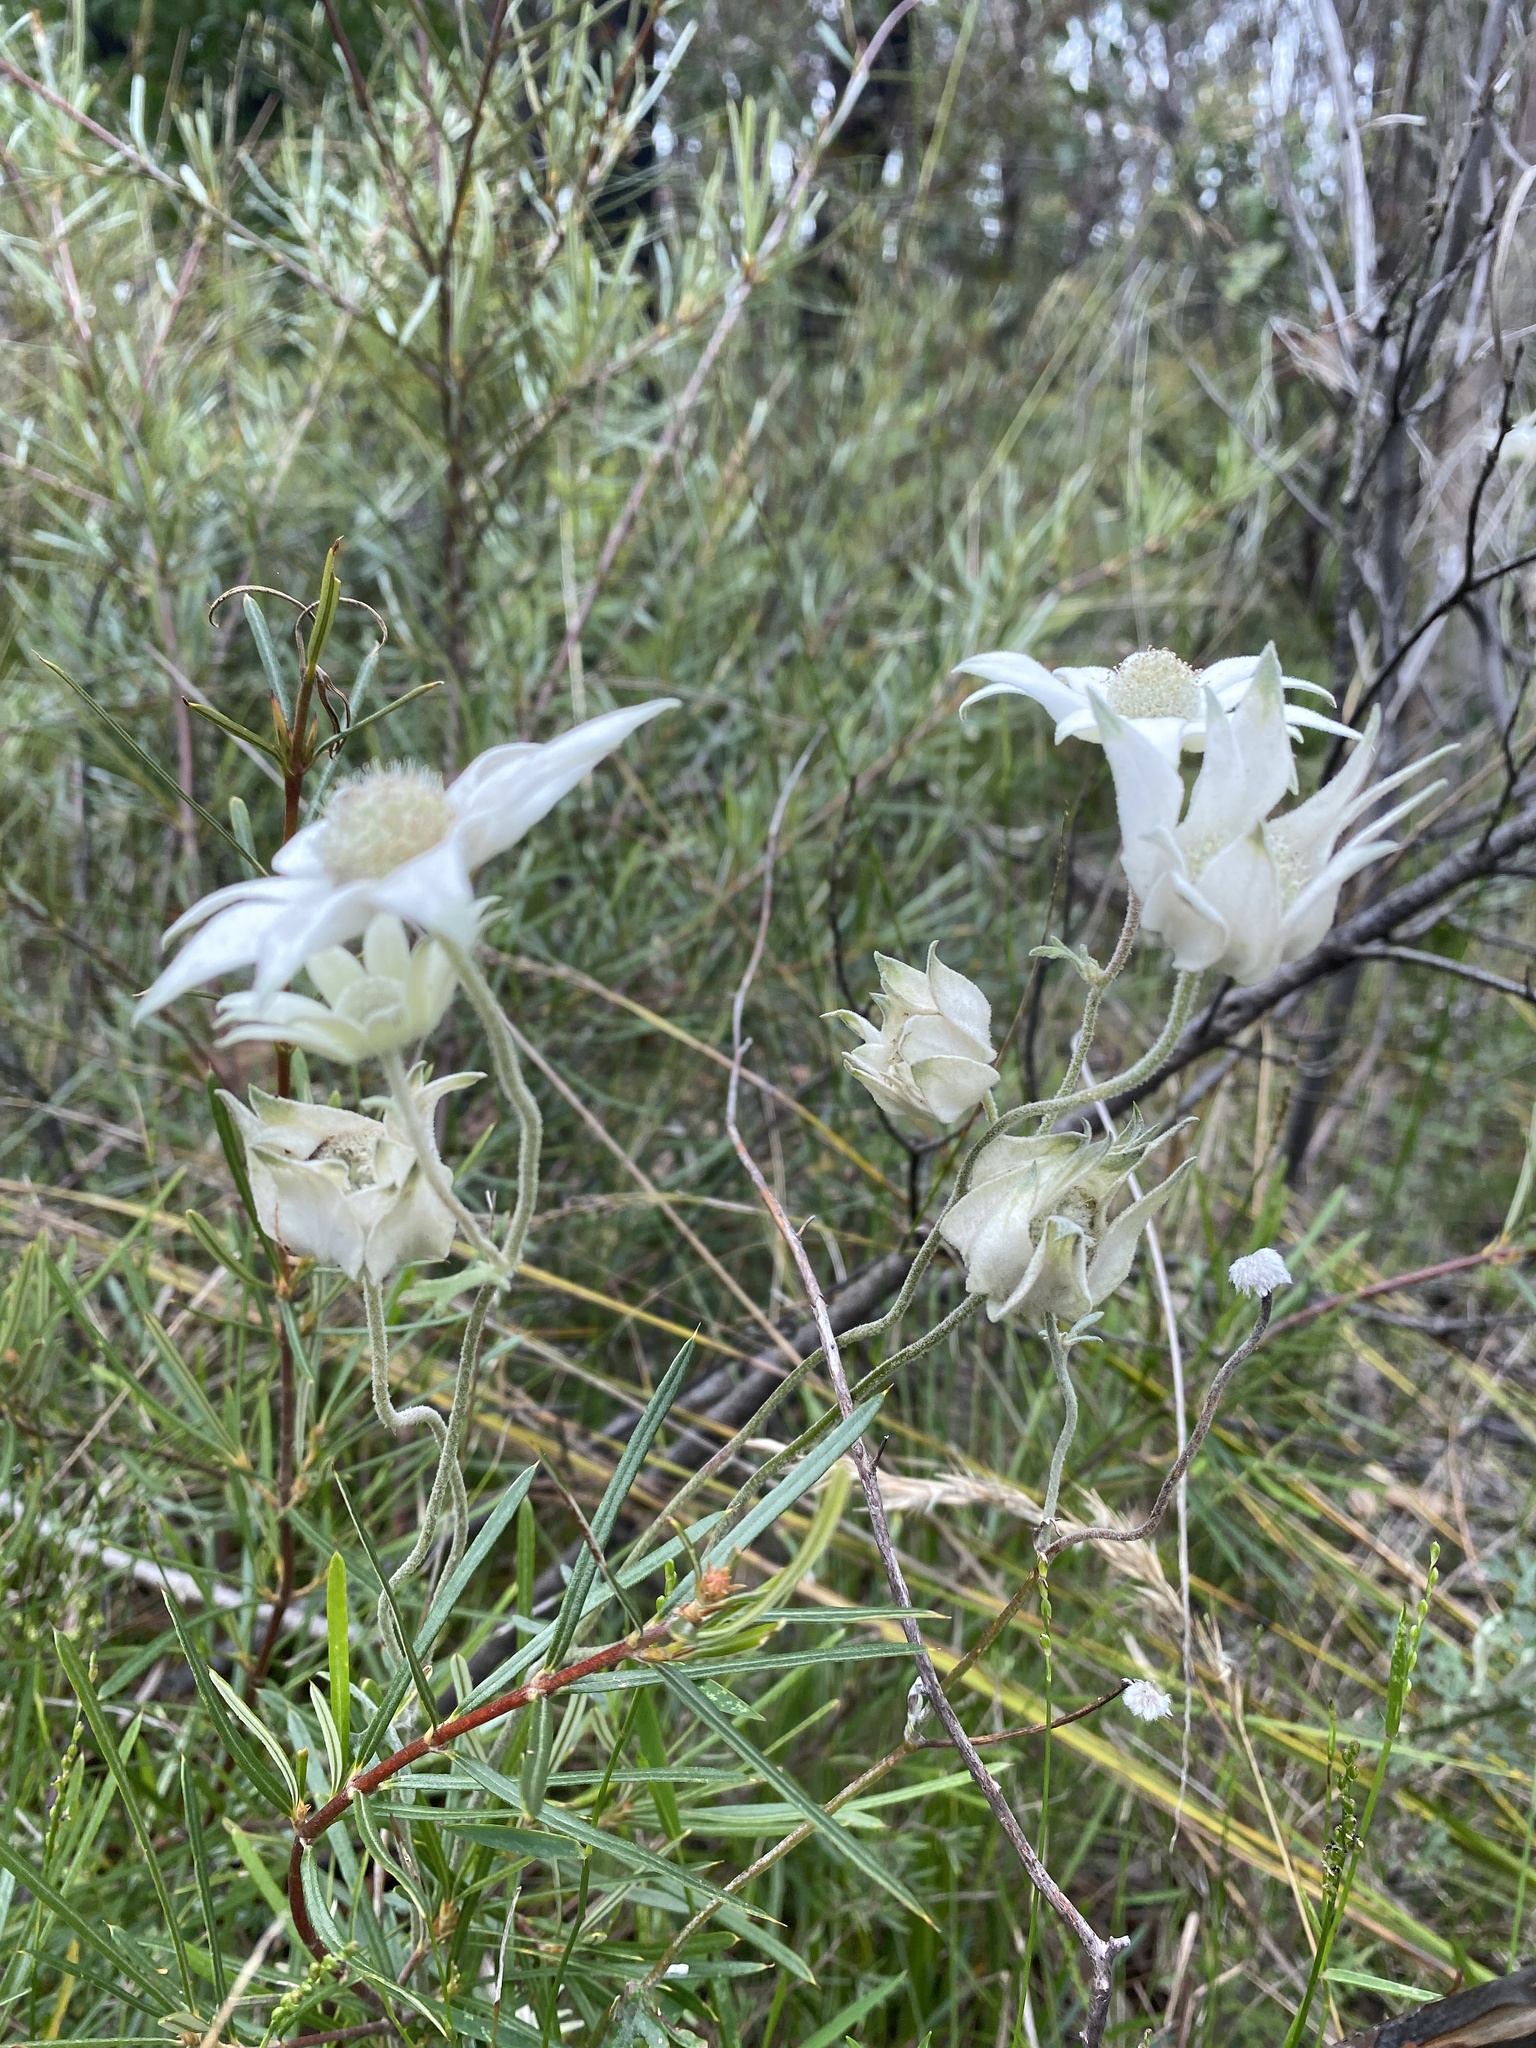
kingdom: Plantae
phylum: Tracheophyta
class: Magnoliopsida
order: Apiales
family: Apiaceae
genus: Actinotus
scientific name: Actinotus helianthi
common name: Flannel-flower
